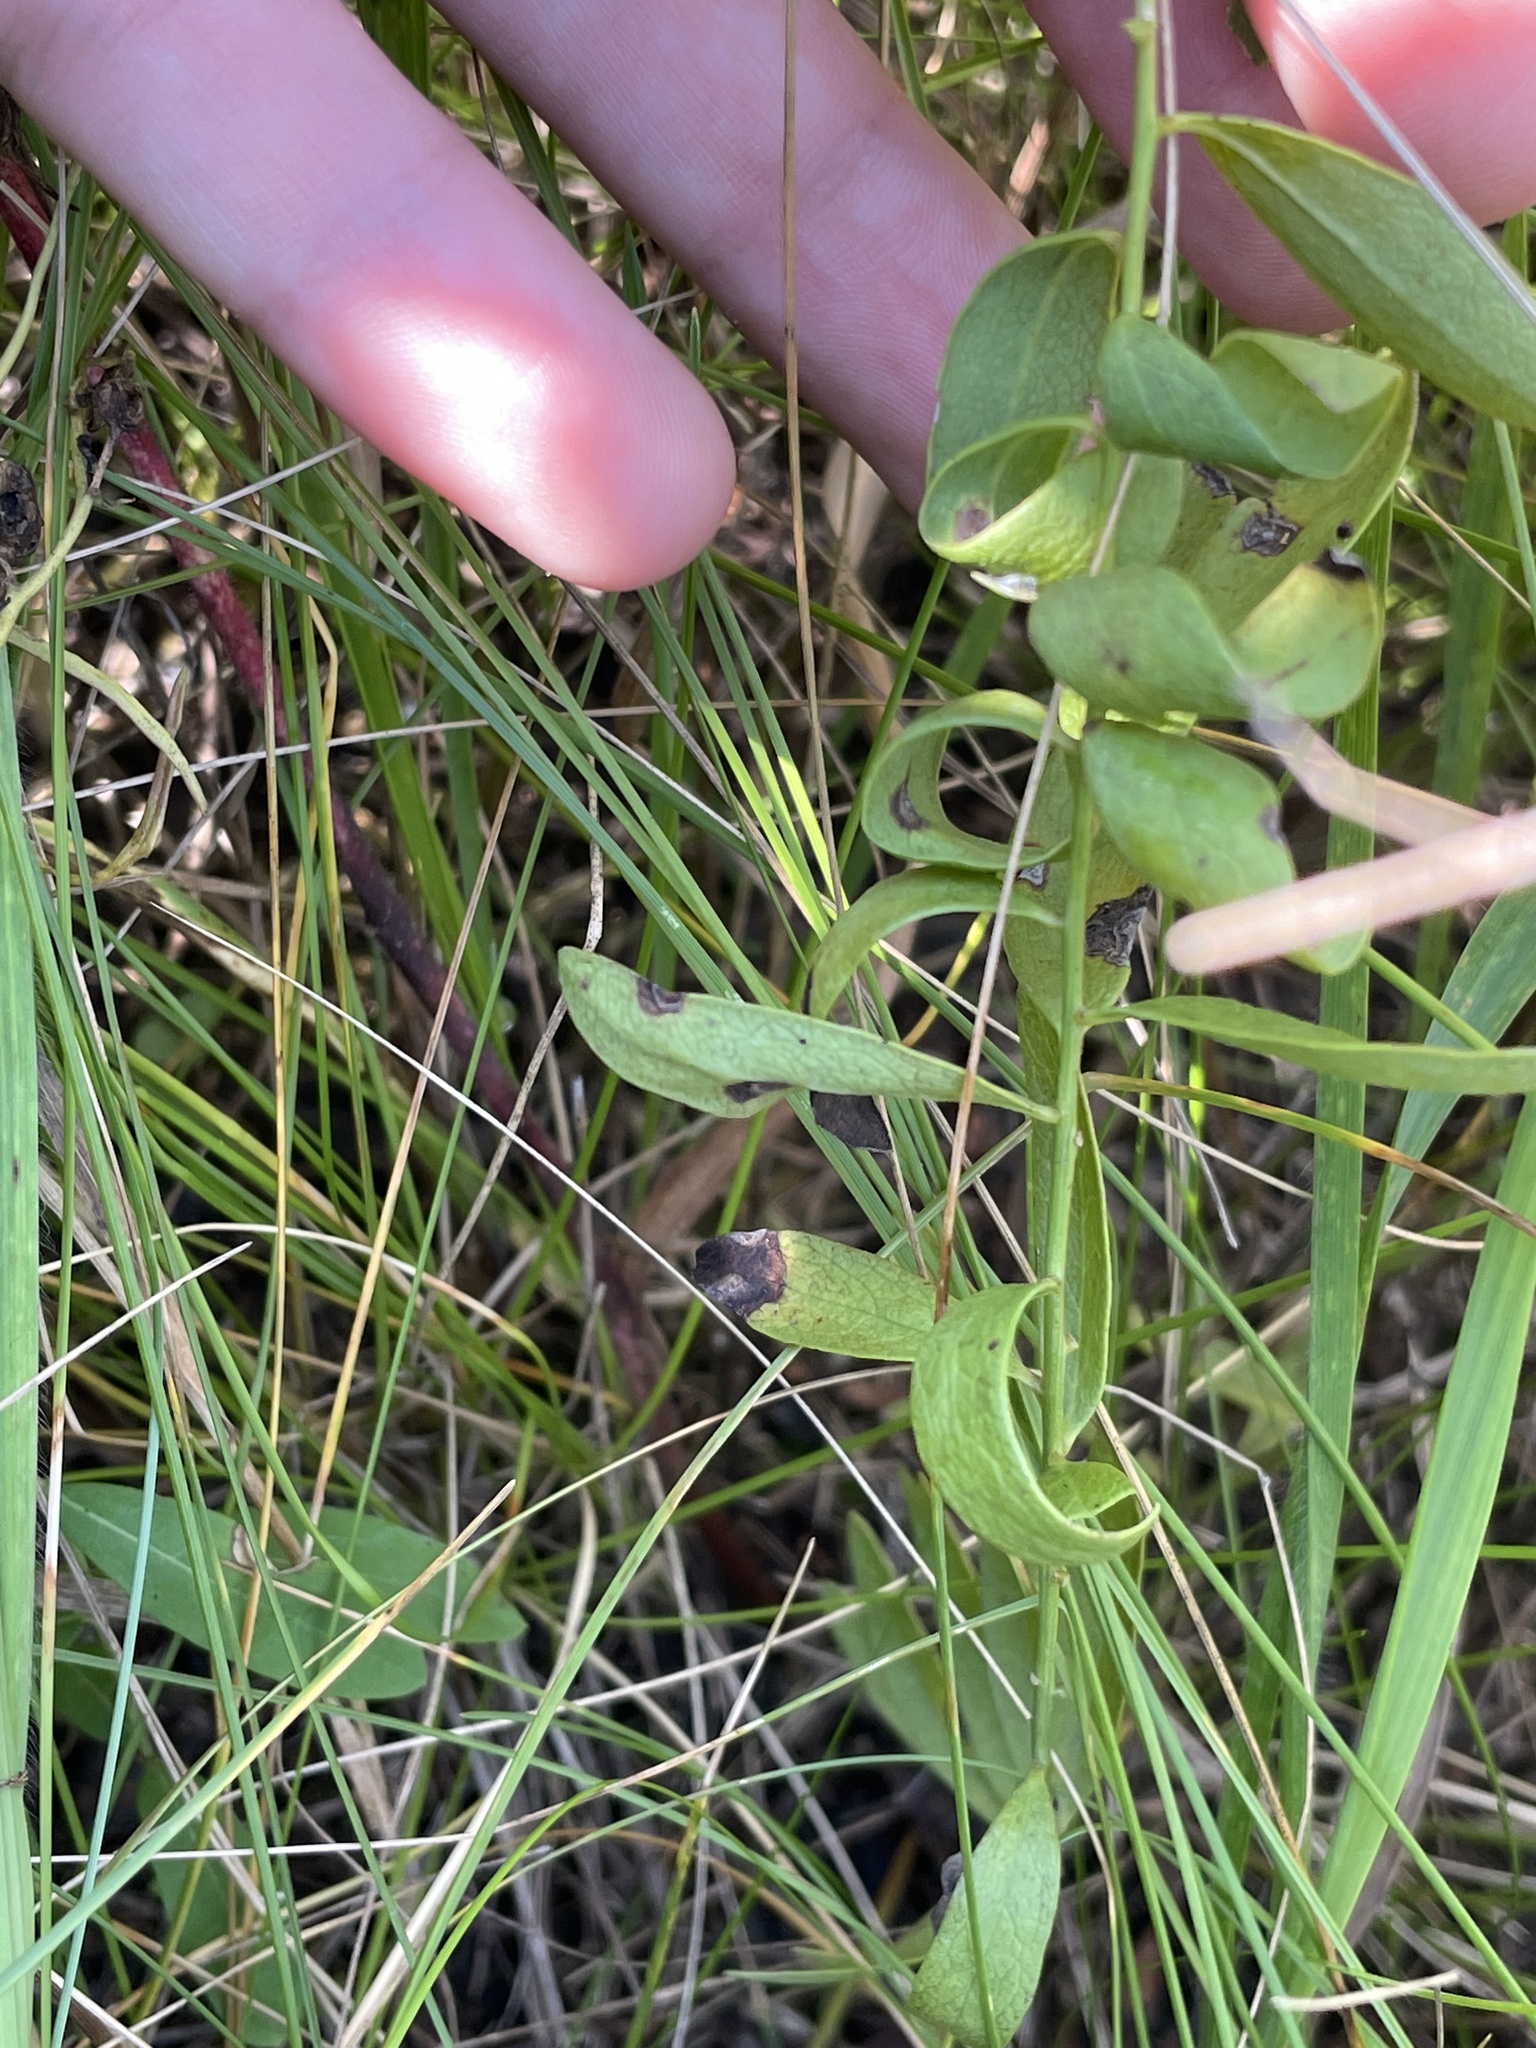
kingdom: Plantae
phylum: Tracheophyta
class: Magnoliopsida
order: Santalales
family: Comandraceae
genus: Comandra
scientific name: Comandra umbellata
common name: Bastard toadflax
